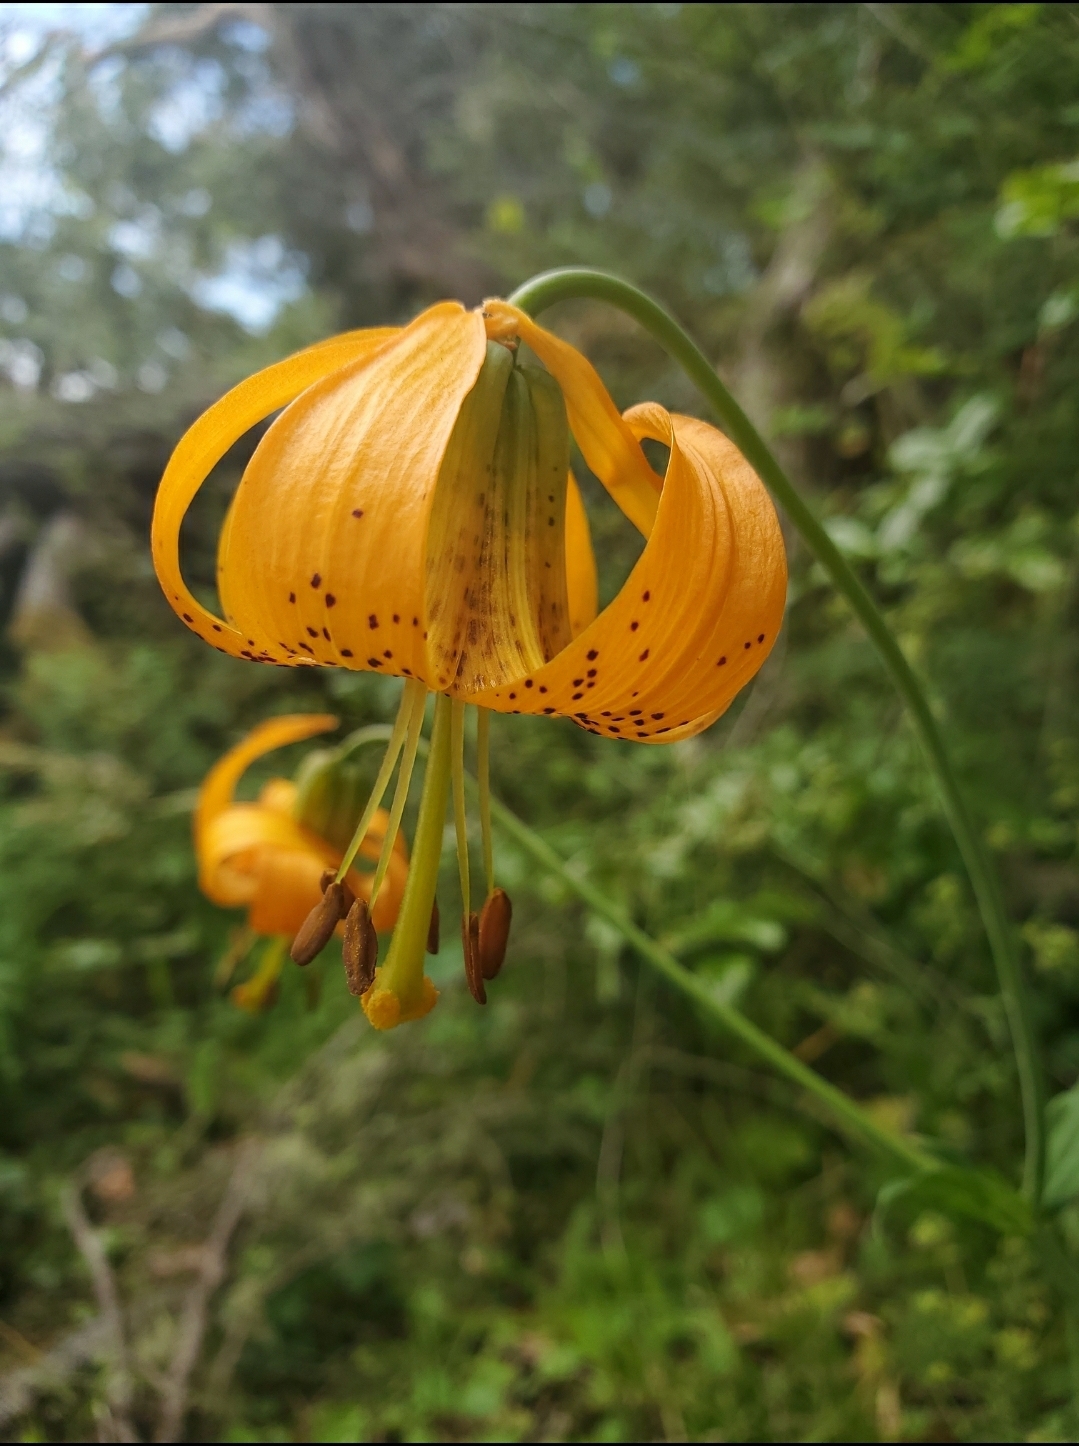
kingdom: Plantae
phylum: Tracheophyta
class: Liliopsida
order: Liliales
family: Liliaceae
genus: Lilium
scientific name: Lilium columbianum
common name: Columbia lily
